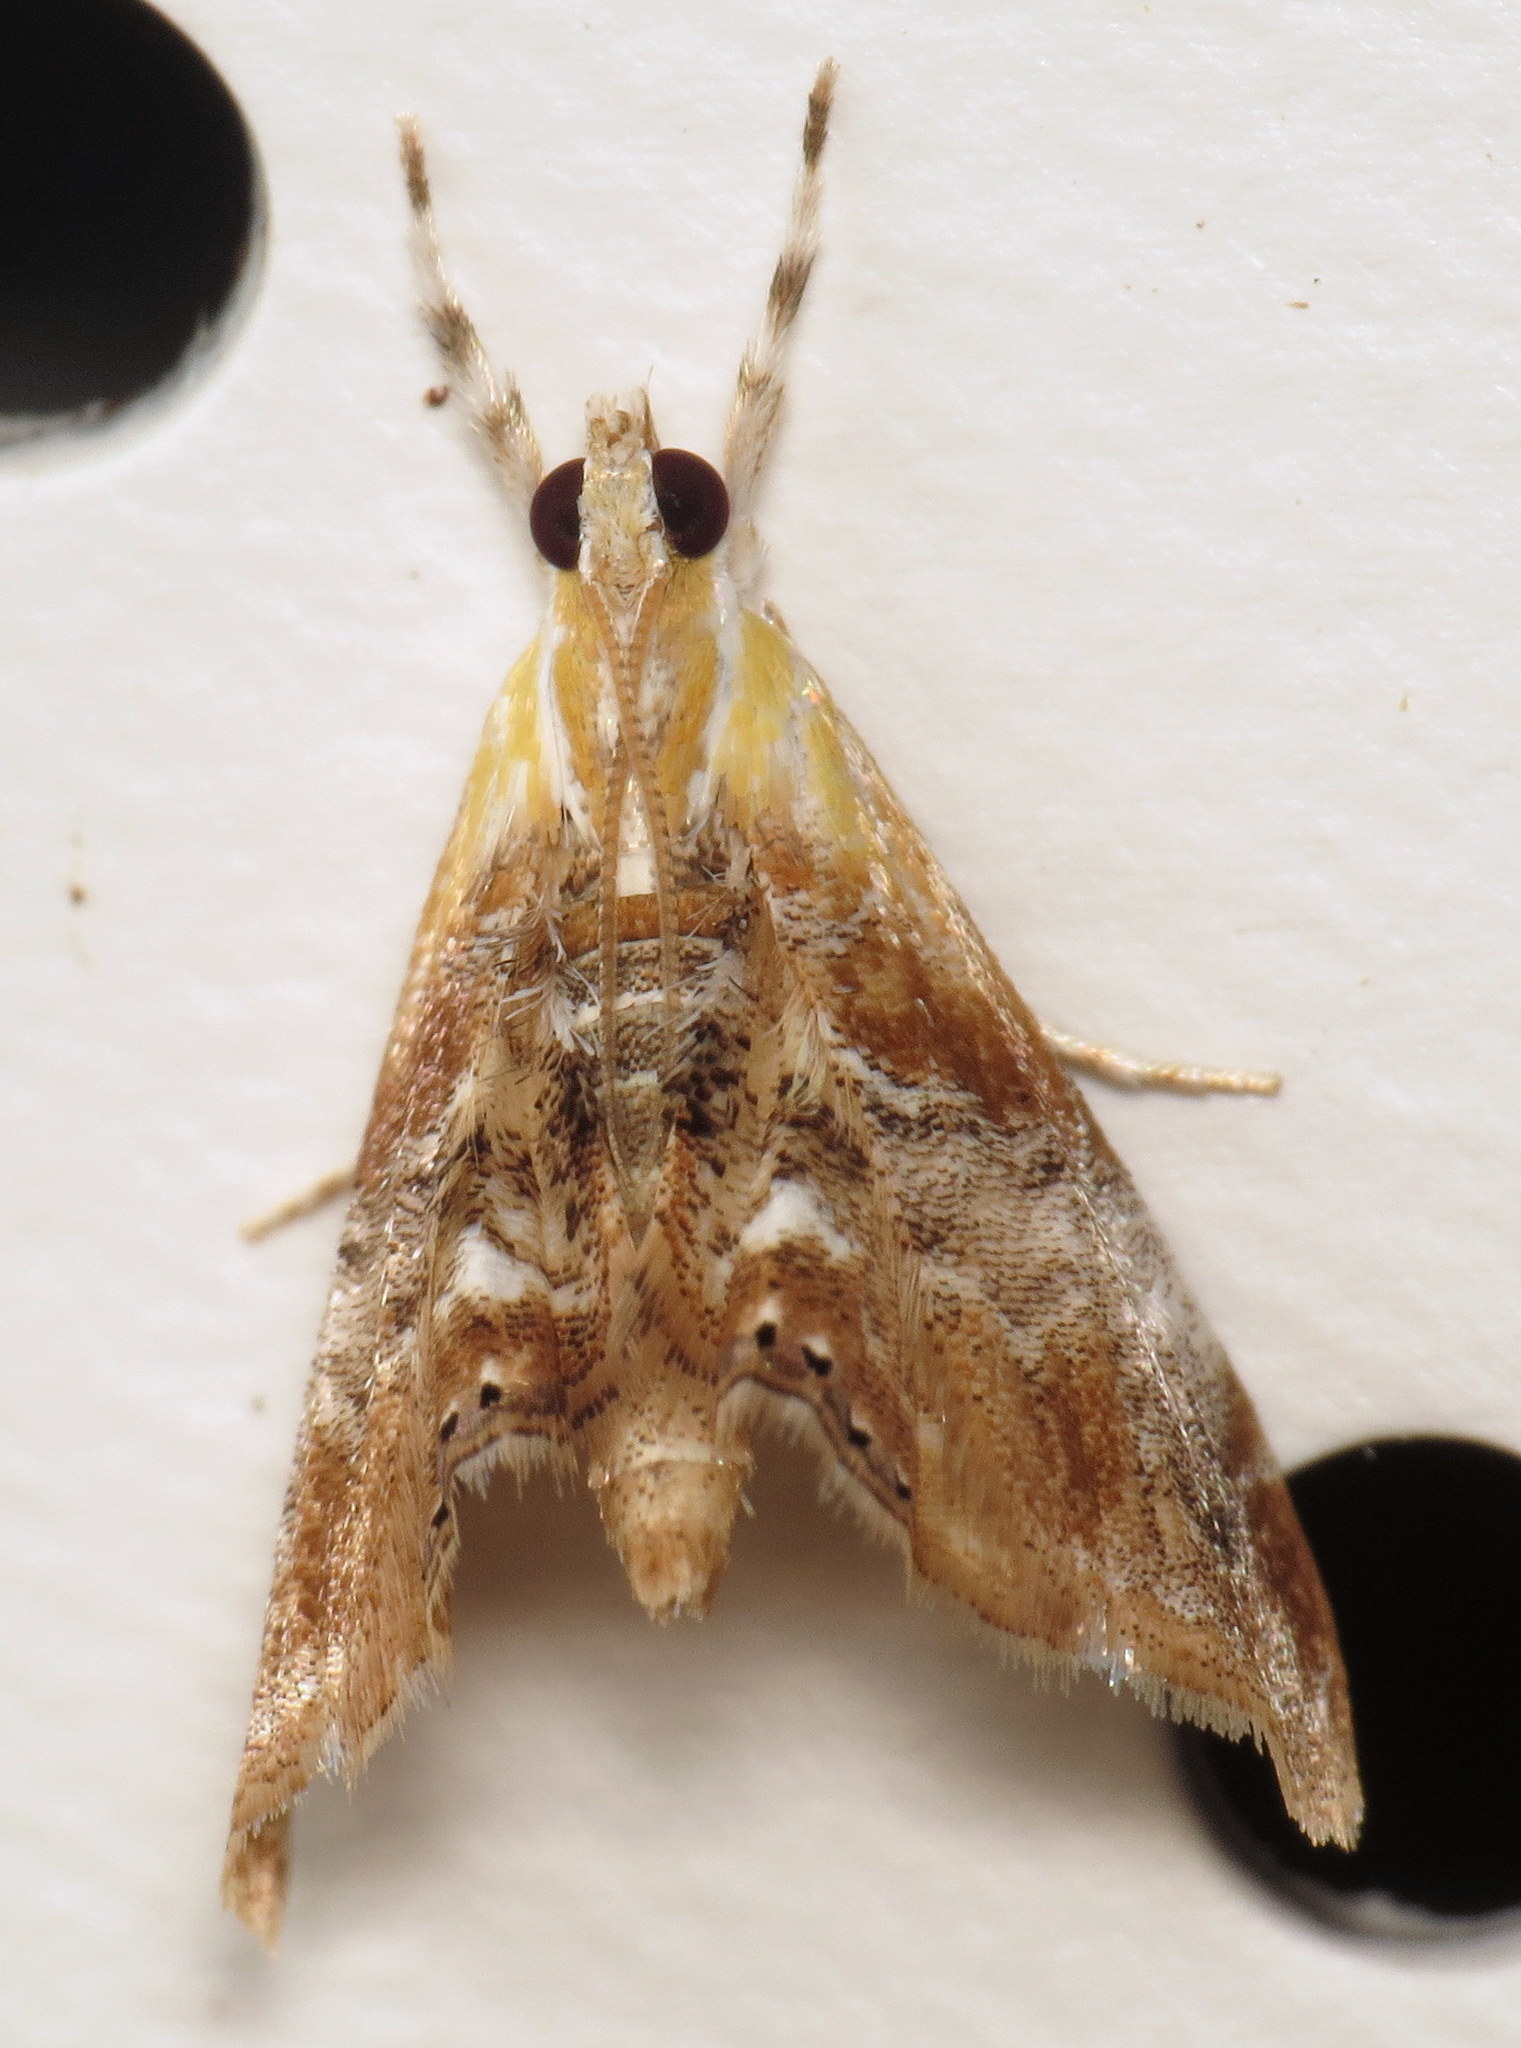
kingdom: Animalia
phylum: Arthropoda
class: Insecta
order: Lepidoptera
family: Crambidae
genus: Dicymolomia
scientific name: Dicymolomia julianalis
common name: Julia's dicymolomia moth
